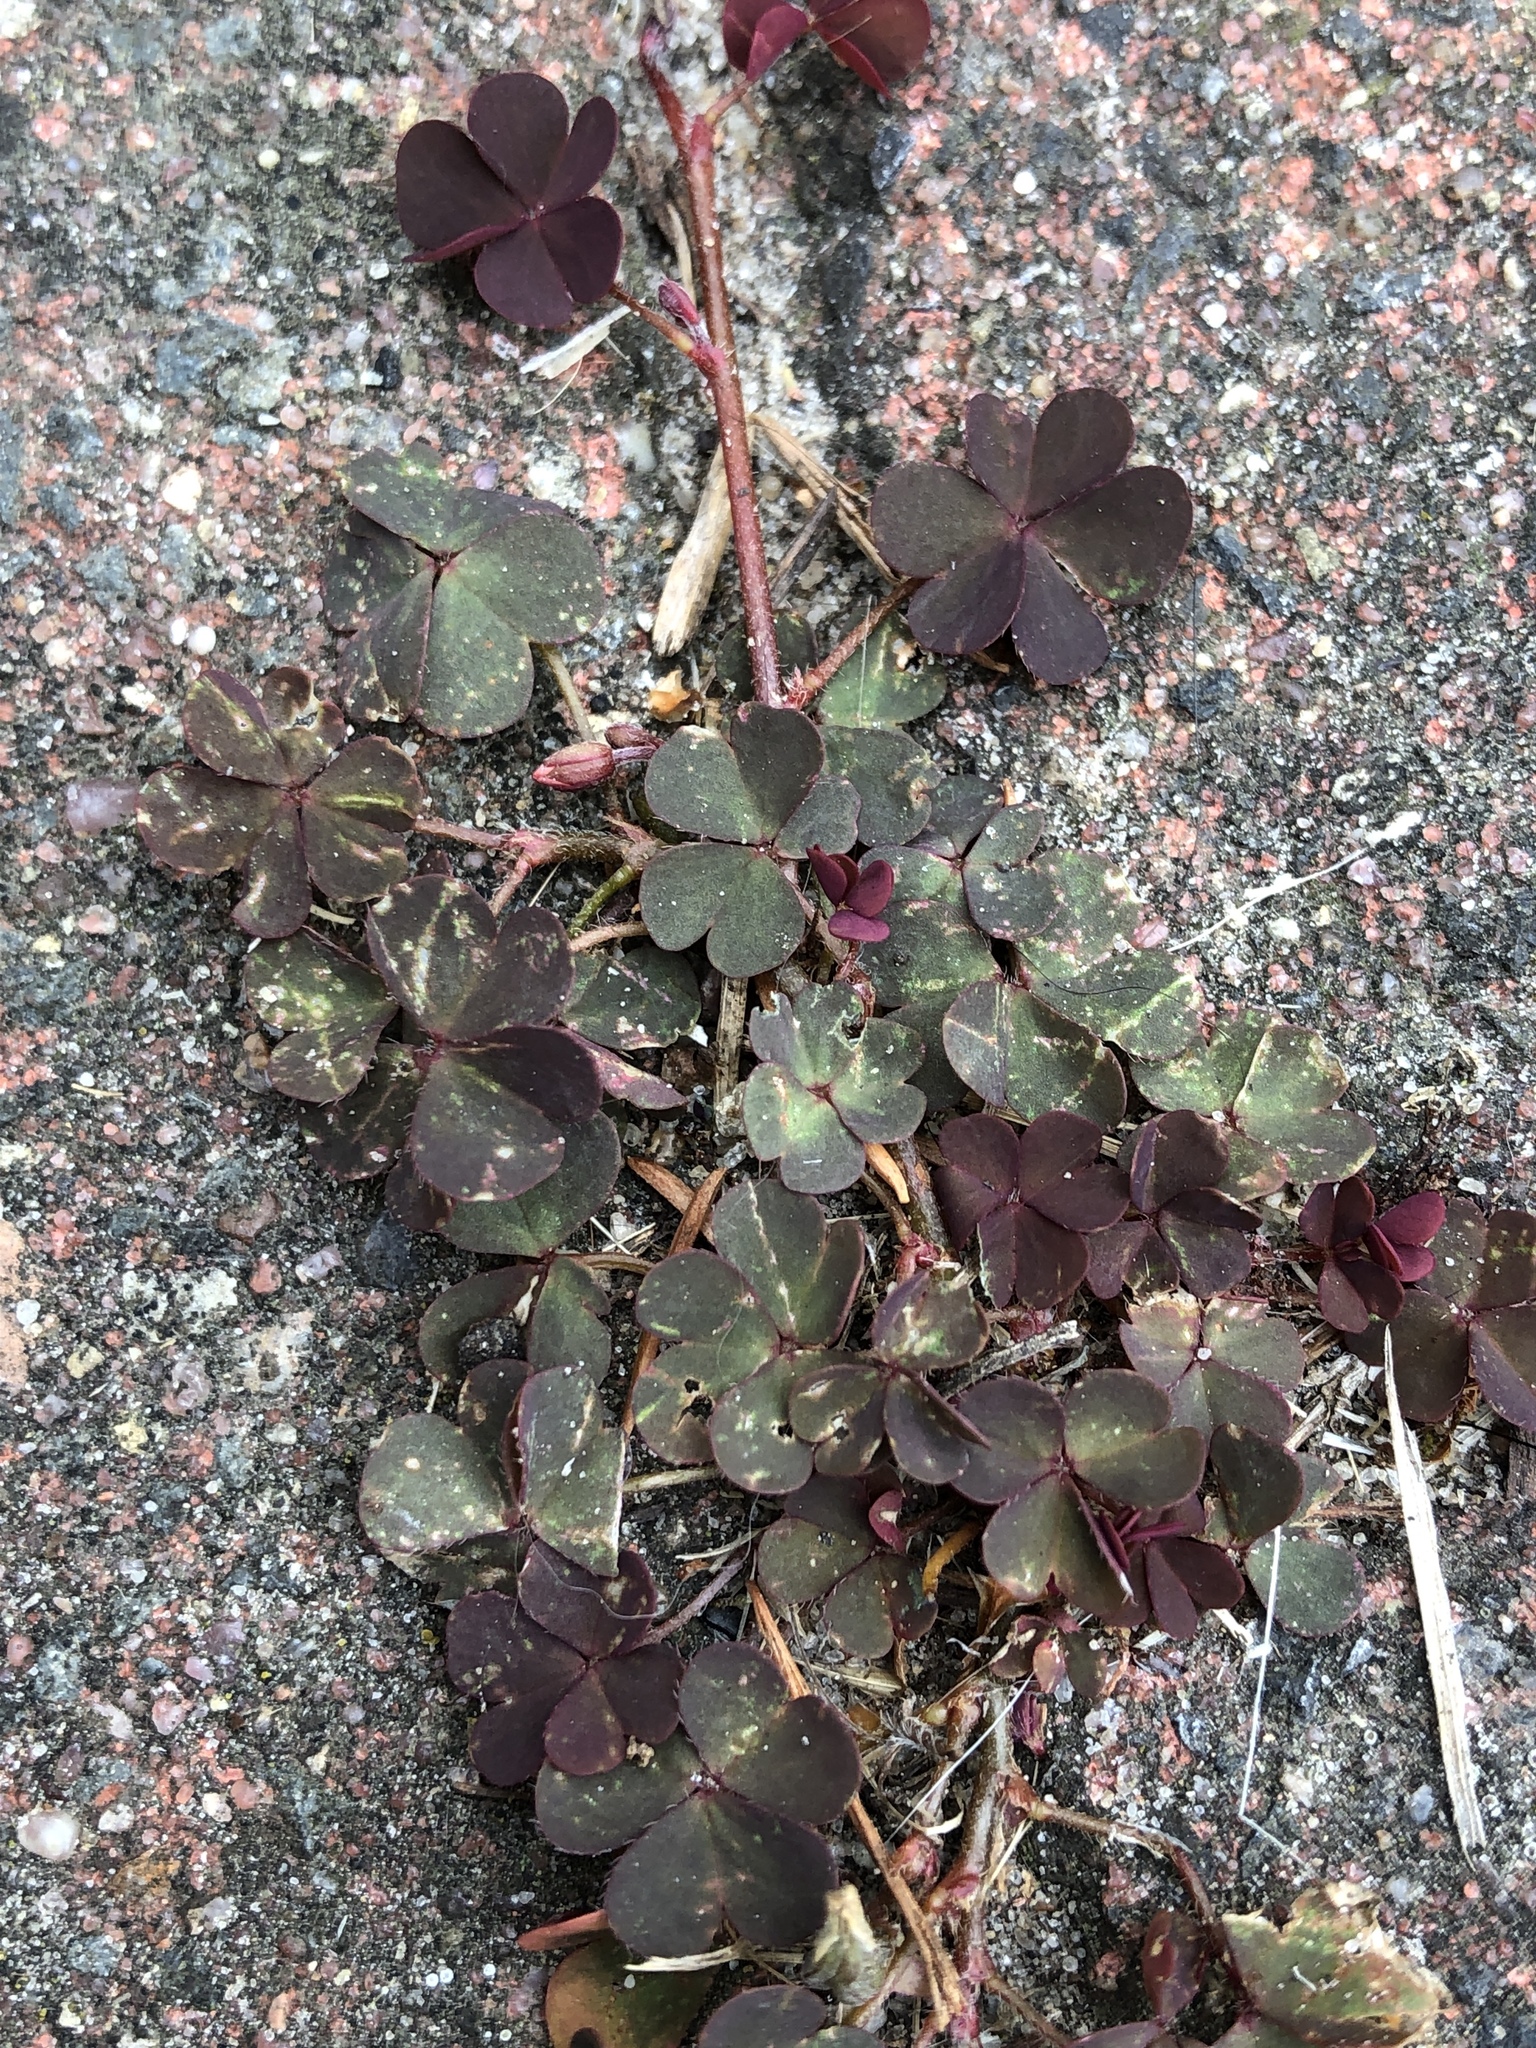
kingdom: Plantae
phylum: Tracheophyta
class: Magnoliopsida
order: Oxalidales
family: Oxalidaceae
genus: Oxalis
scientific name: Oxalis corniculata
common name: Procumbent yellow-sorrel
